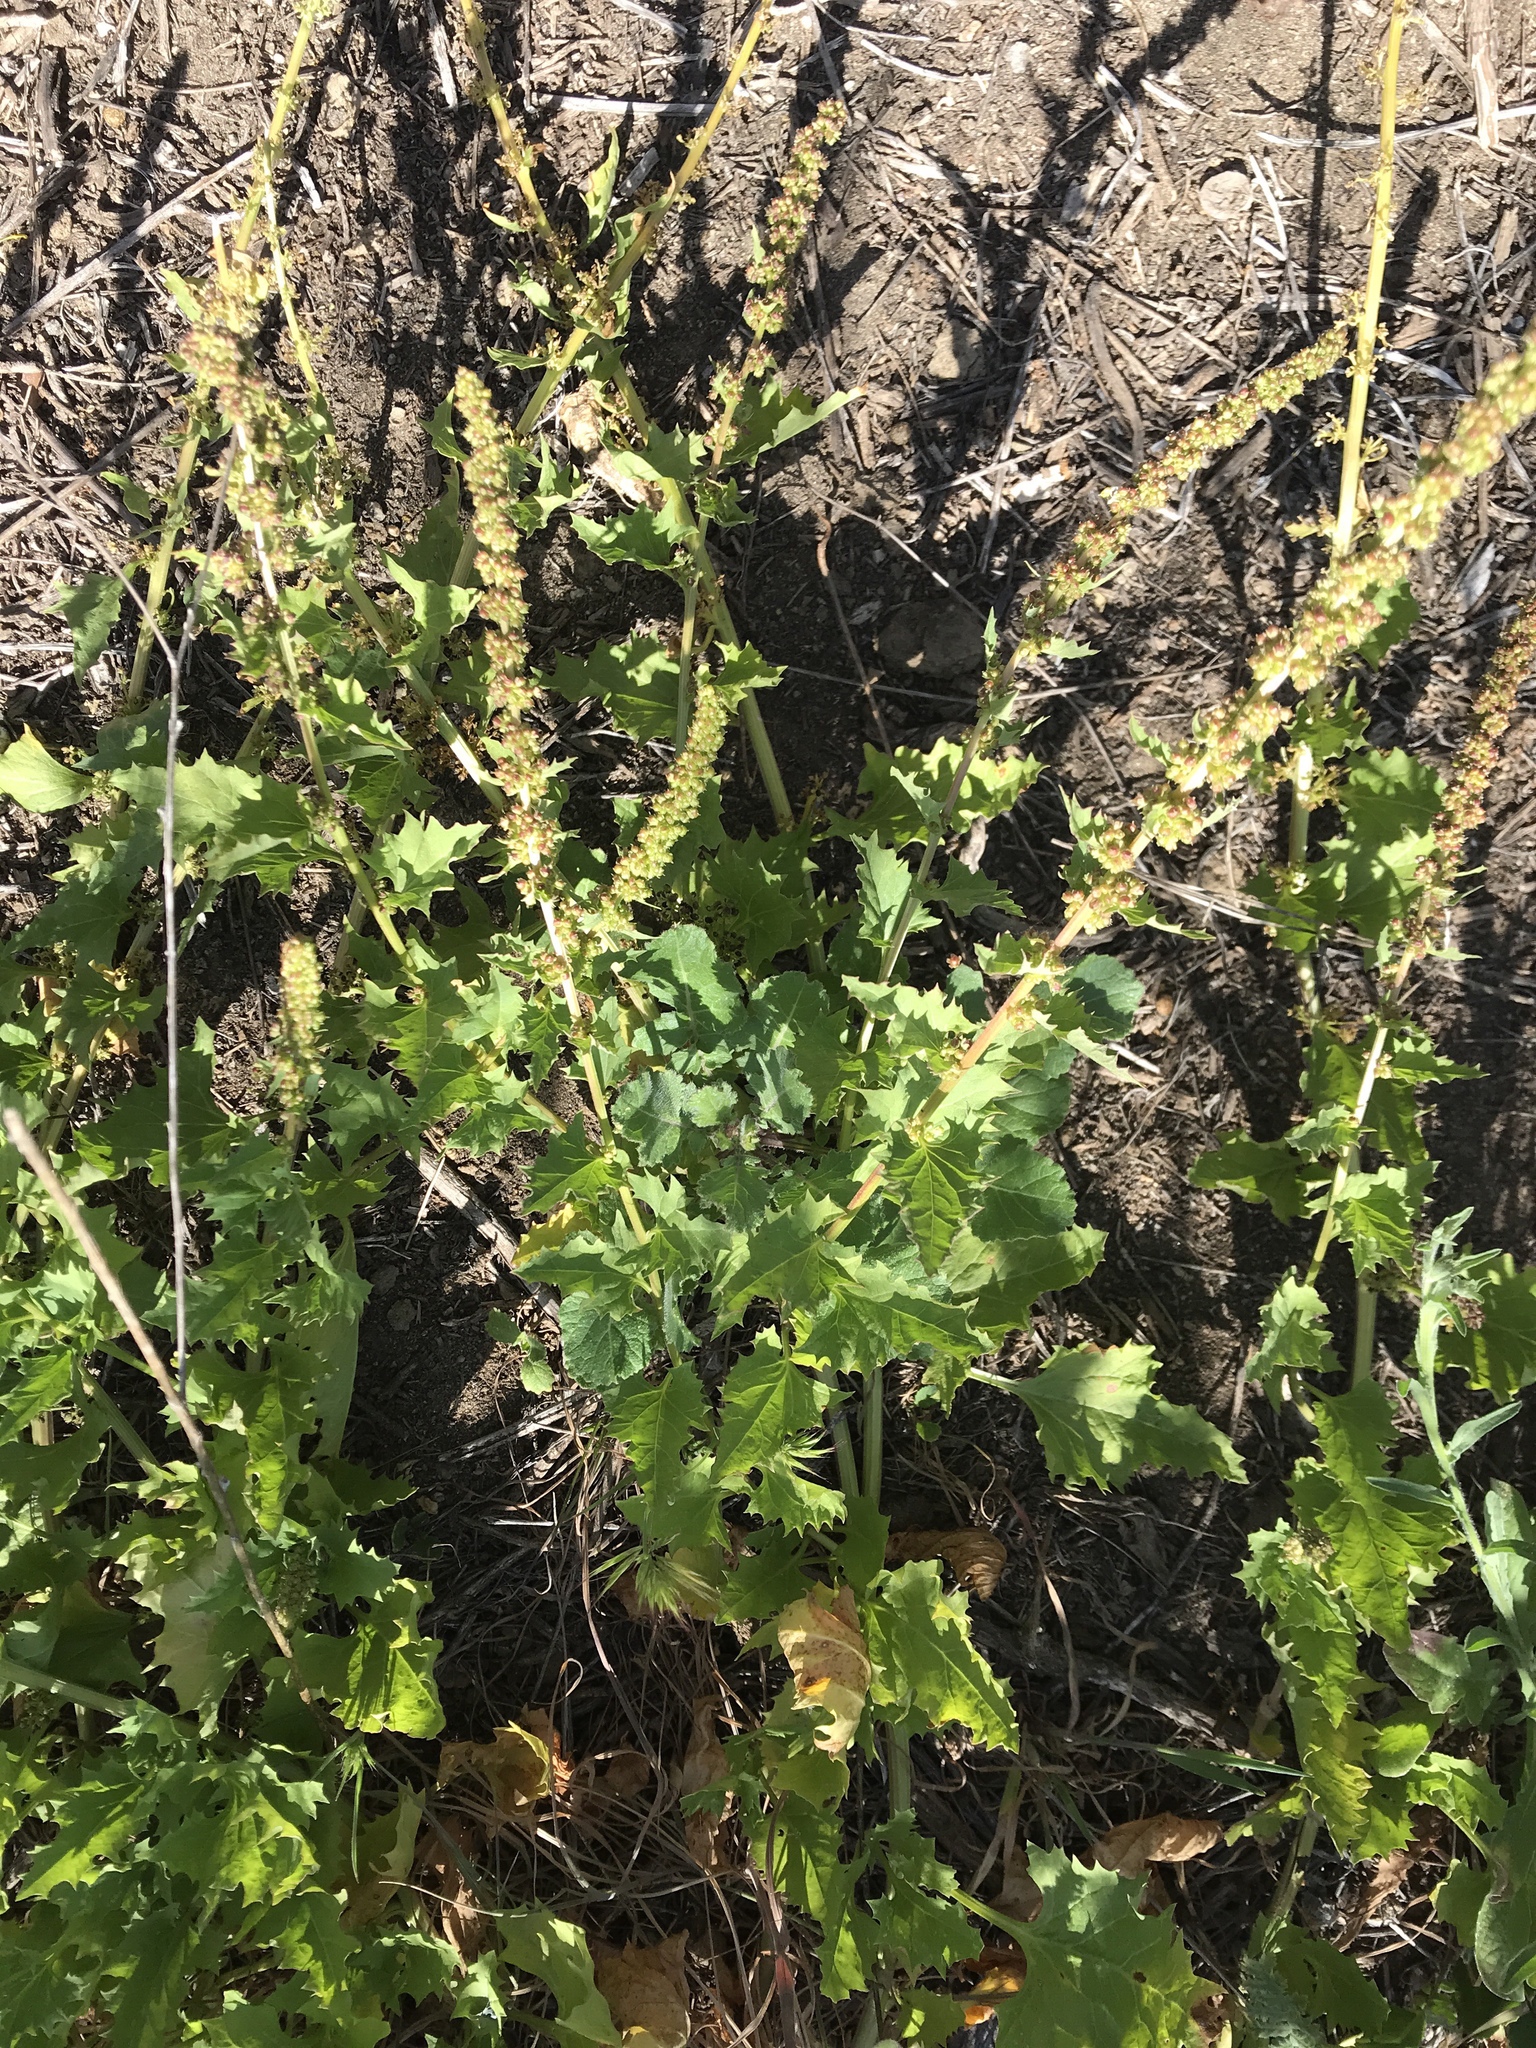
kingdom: Plantae
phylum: Tracheophyta
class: Magnoliopsida
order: Caryophyllales
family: Amaranthaceae
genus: Blitum
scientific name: Blitum californicum
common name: California goosefoot
